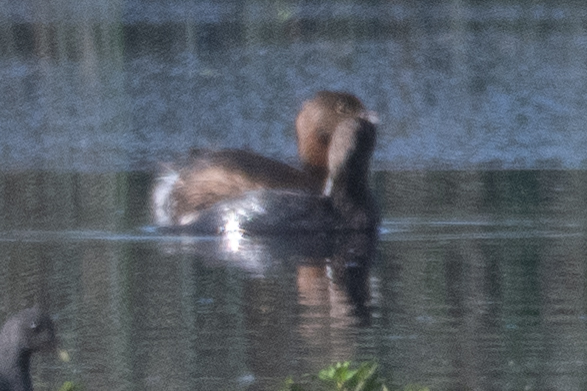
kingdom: Animalia
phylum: Chordata
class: Aves
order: Podicipediformes
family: Podicipedidae
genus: Podilymbus
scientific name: Podilymbus podiceps
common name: Pied-billed grebe
